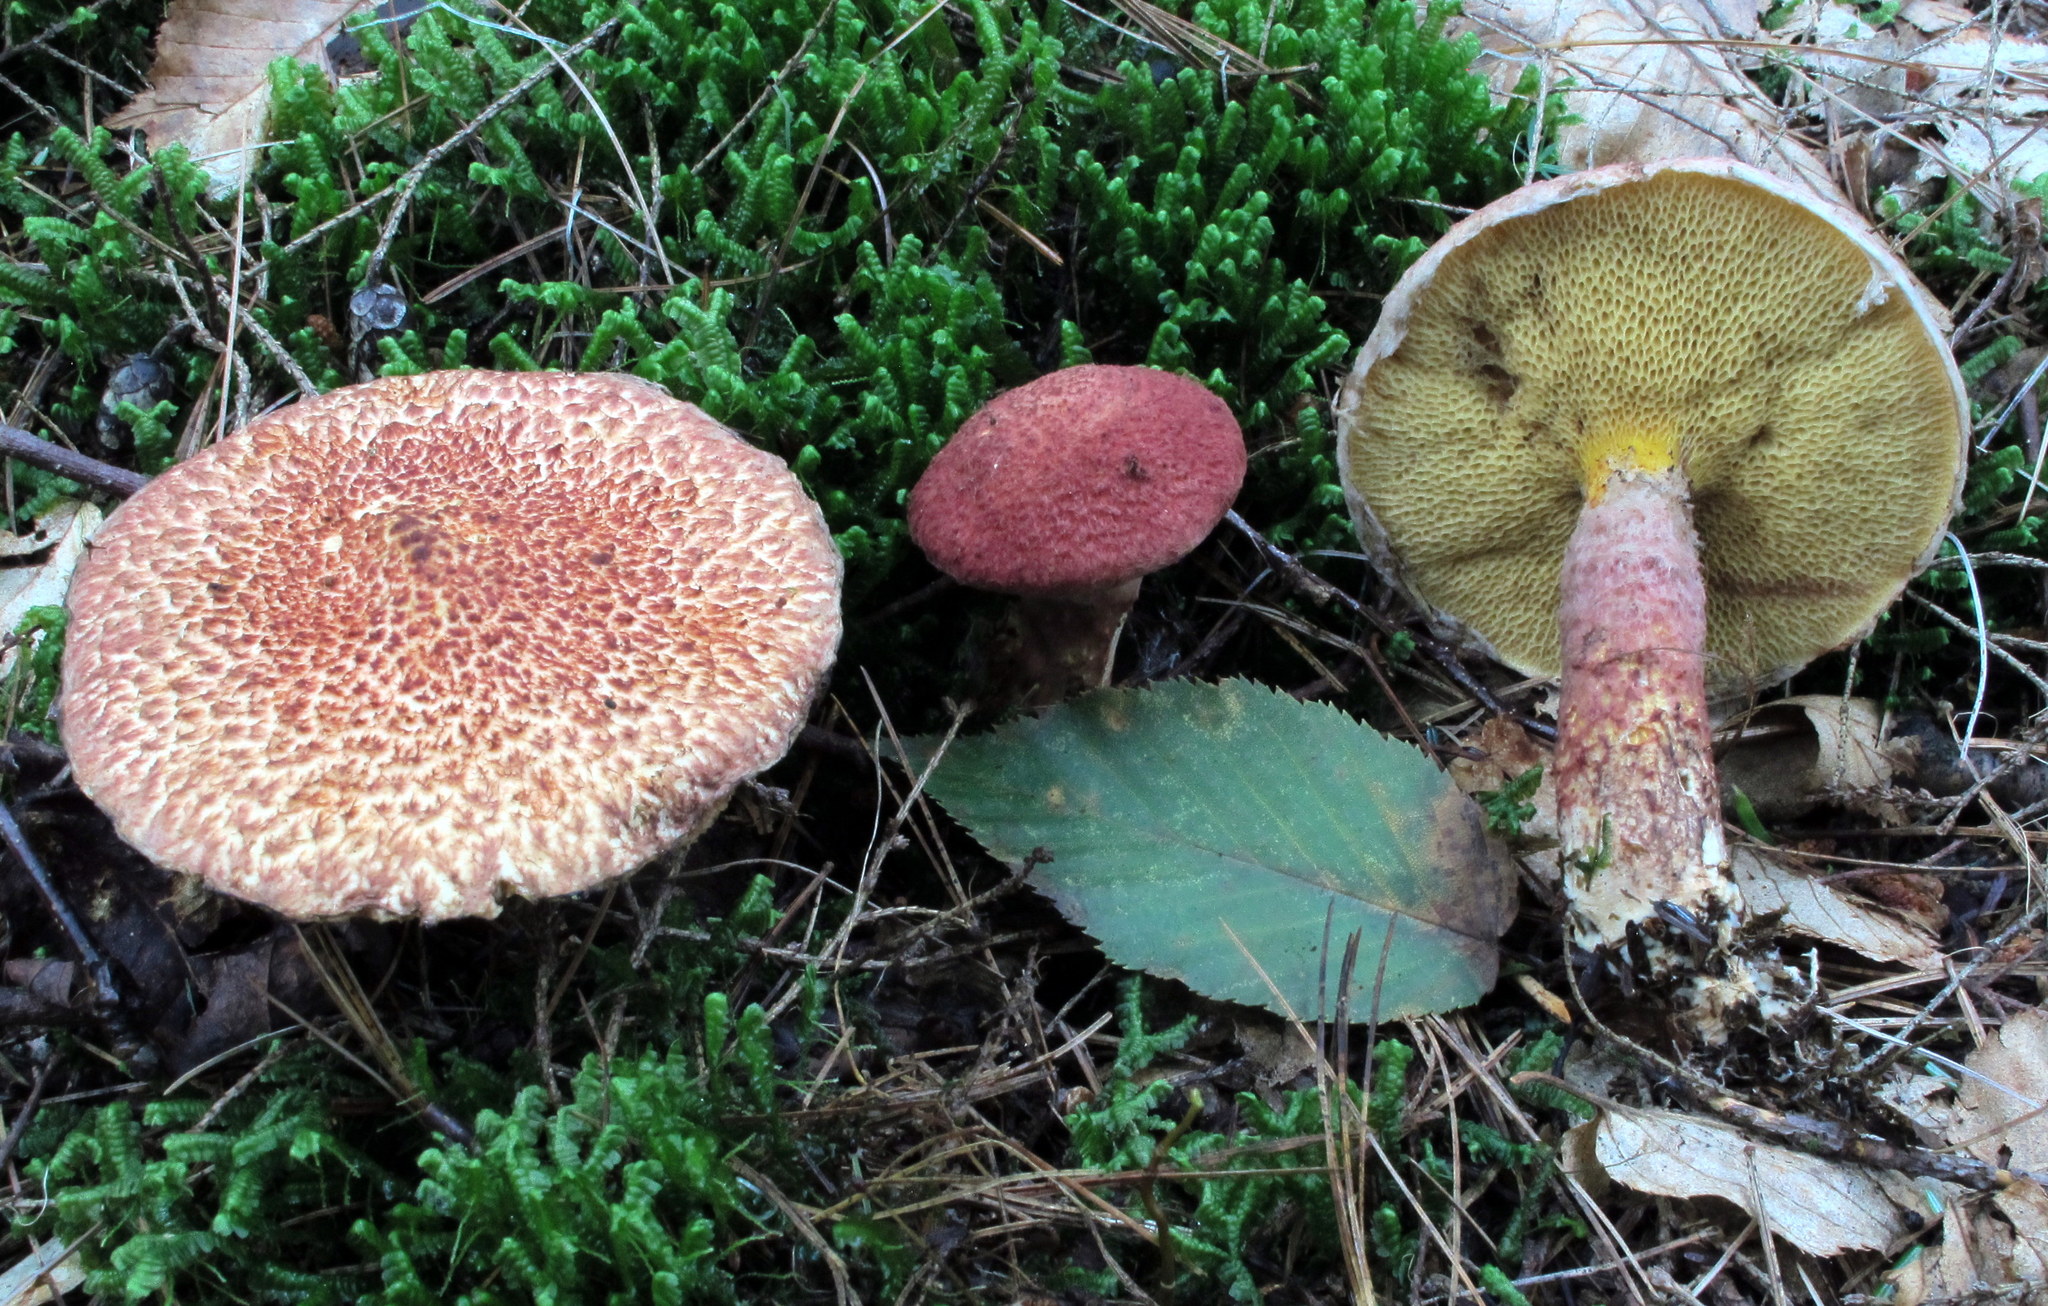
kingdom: Fungi
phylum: Basidiomycota
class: Agaricomycetes
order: Boletales
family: Suillaceae
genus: Suillus
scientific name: Suillus spraguei
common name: Painted suillus
